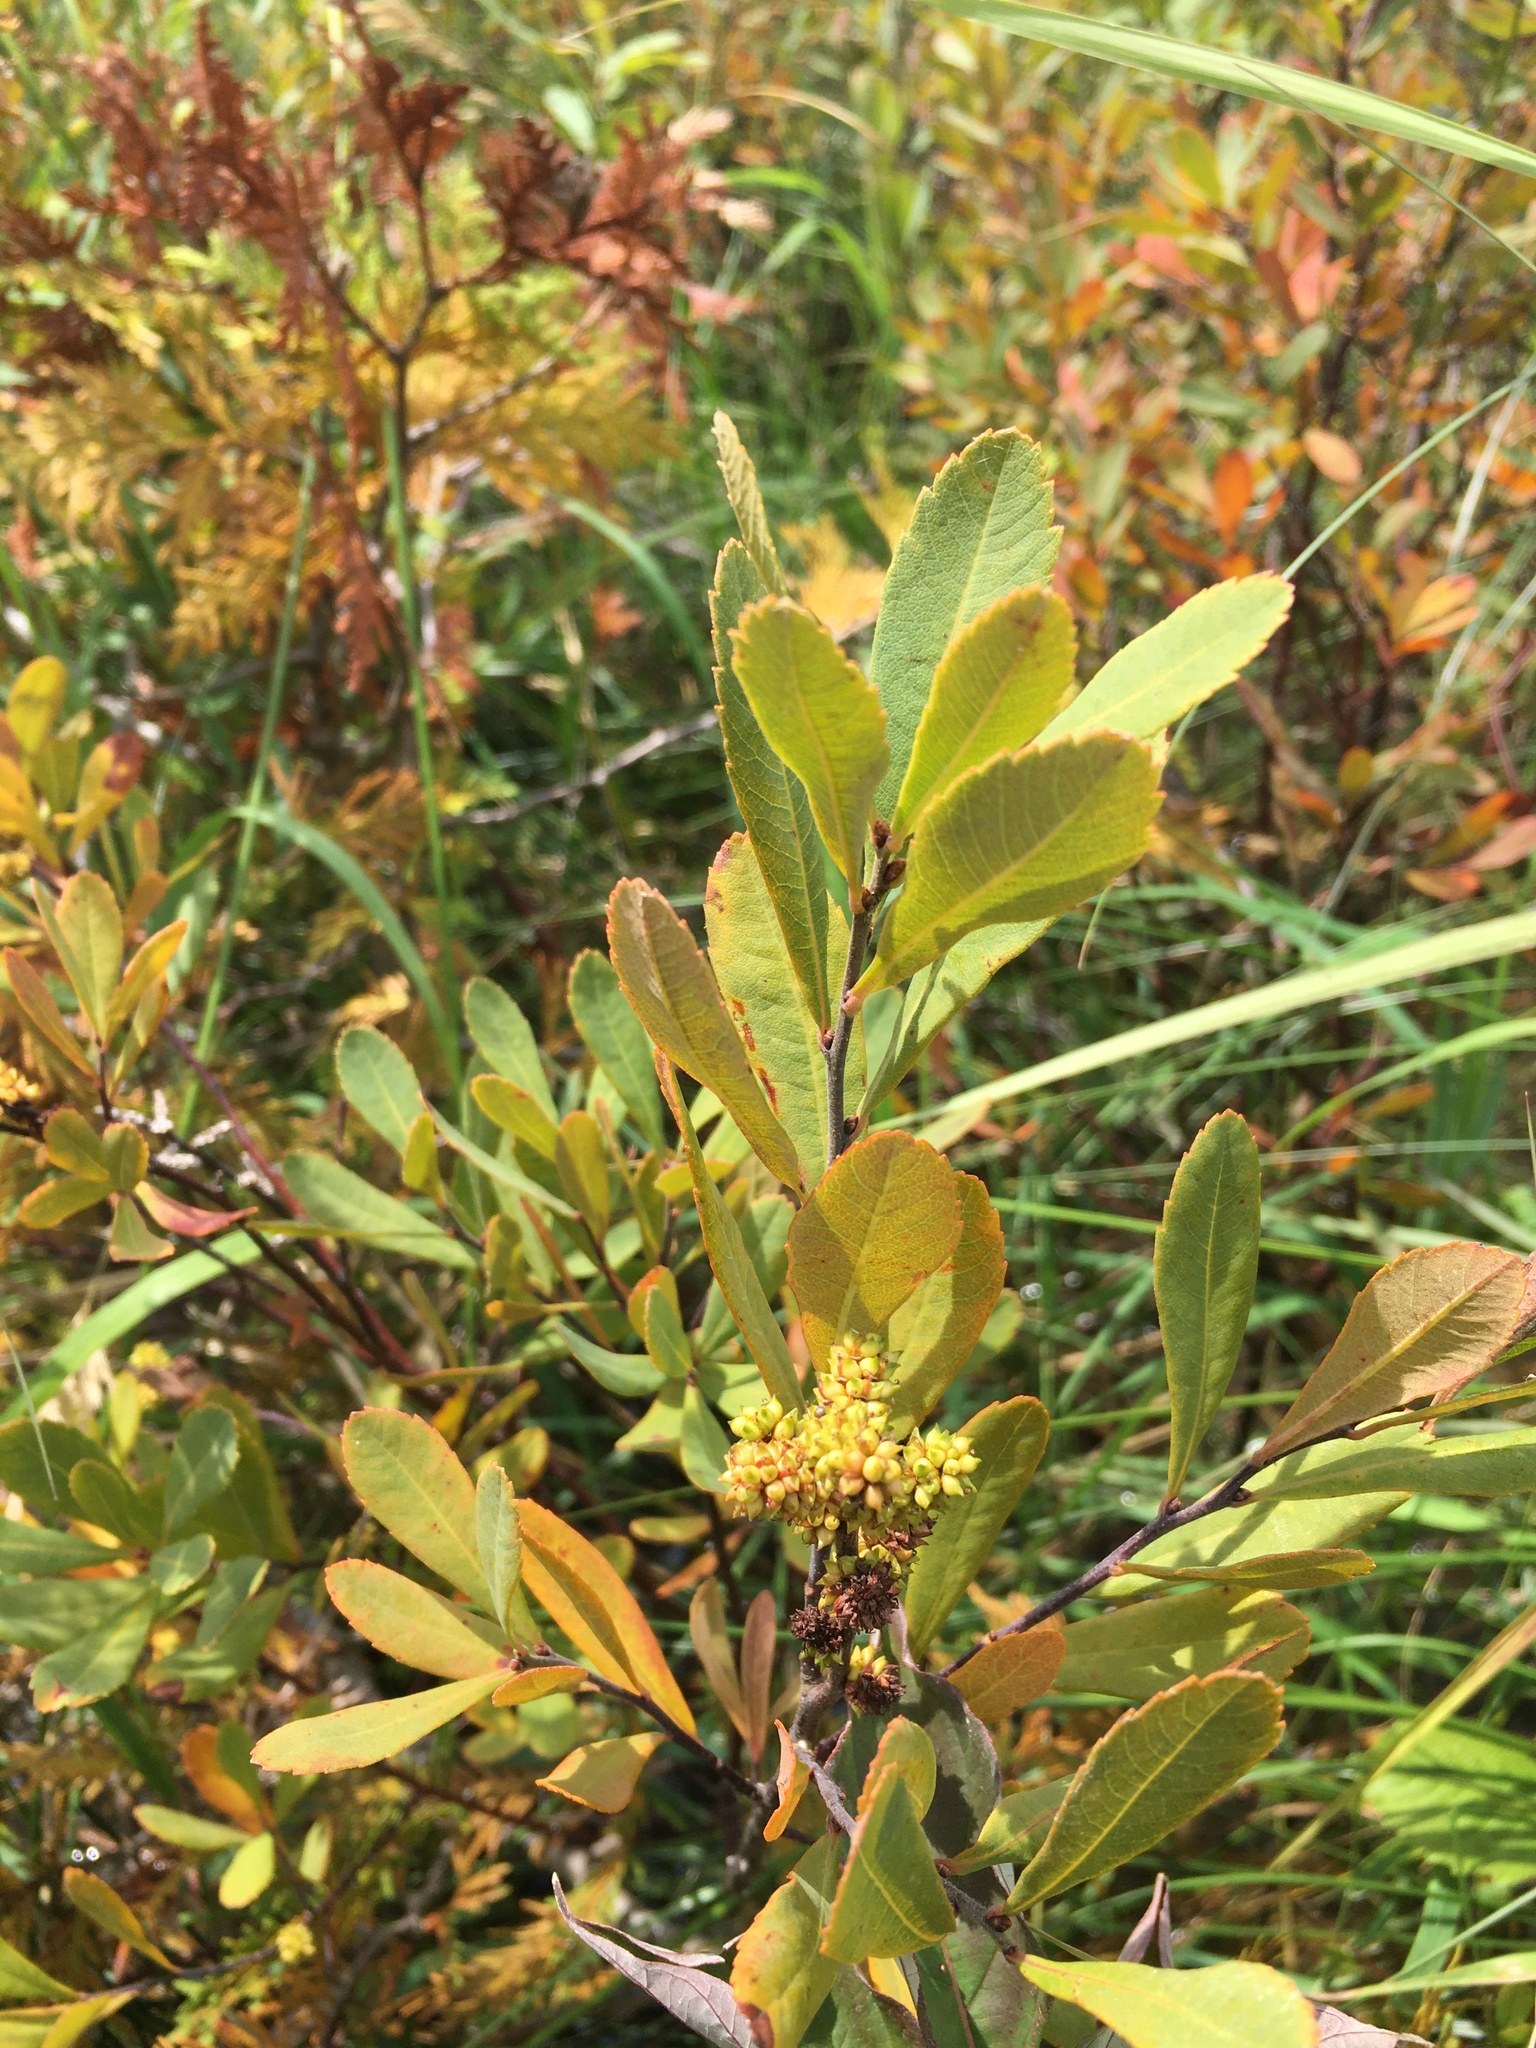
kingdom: Plantae
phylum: Tracheophyta
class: Magnoliopsida
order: Fagales
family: Myricaceae
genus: Myrica
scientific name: Myrica gale
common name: Sweet gale
